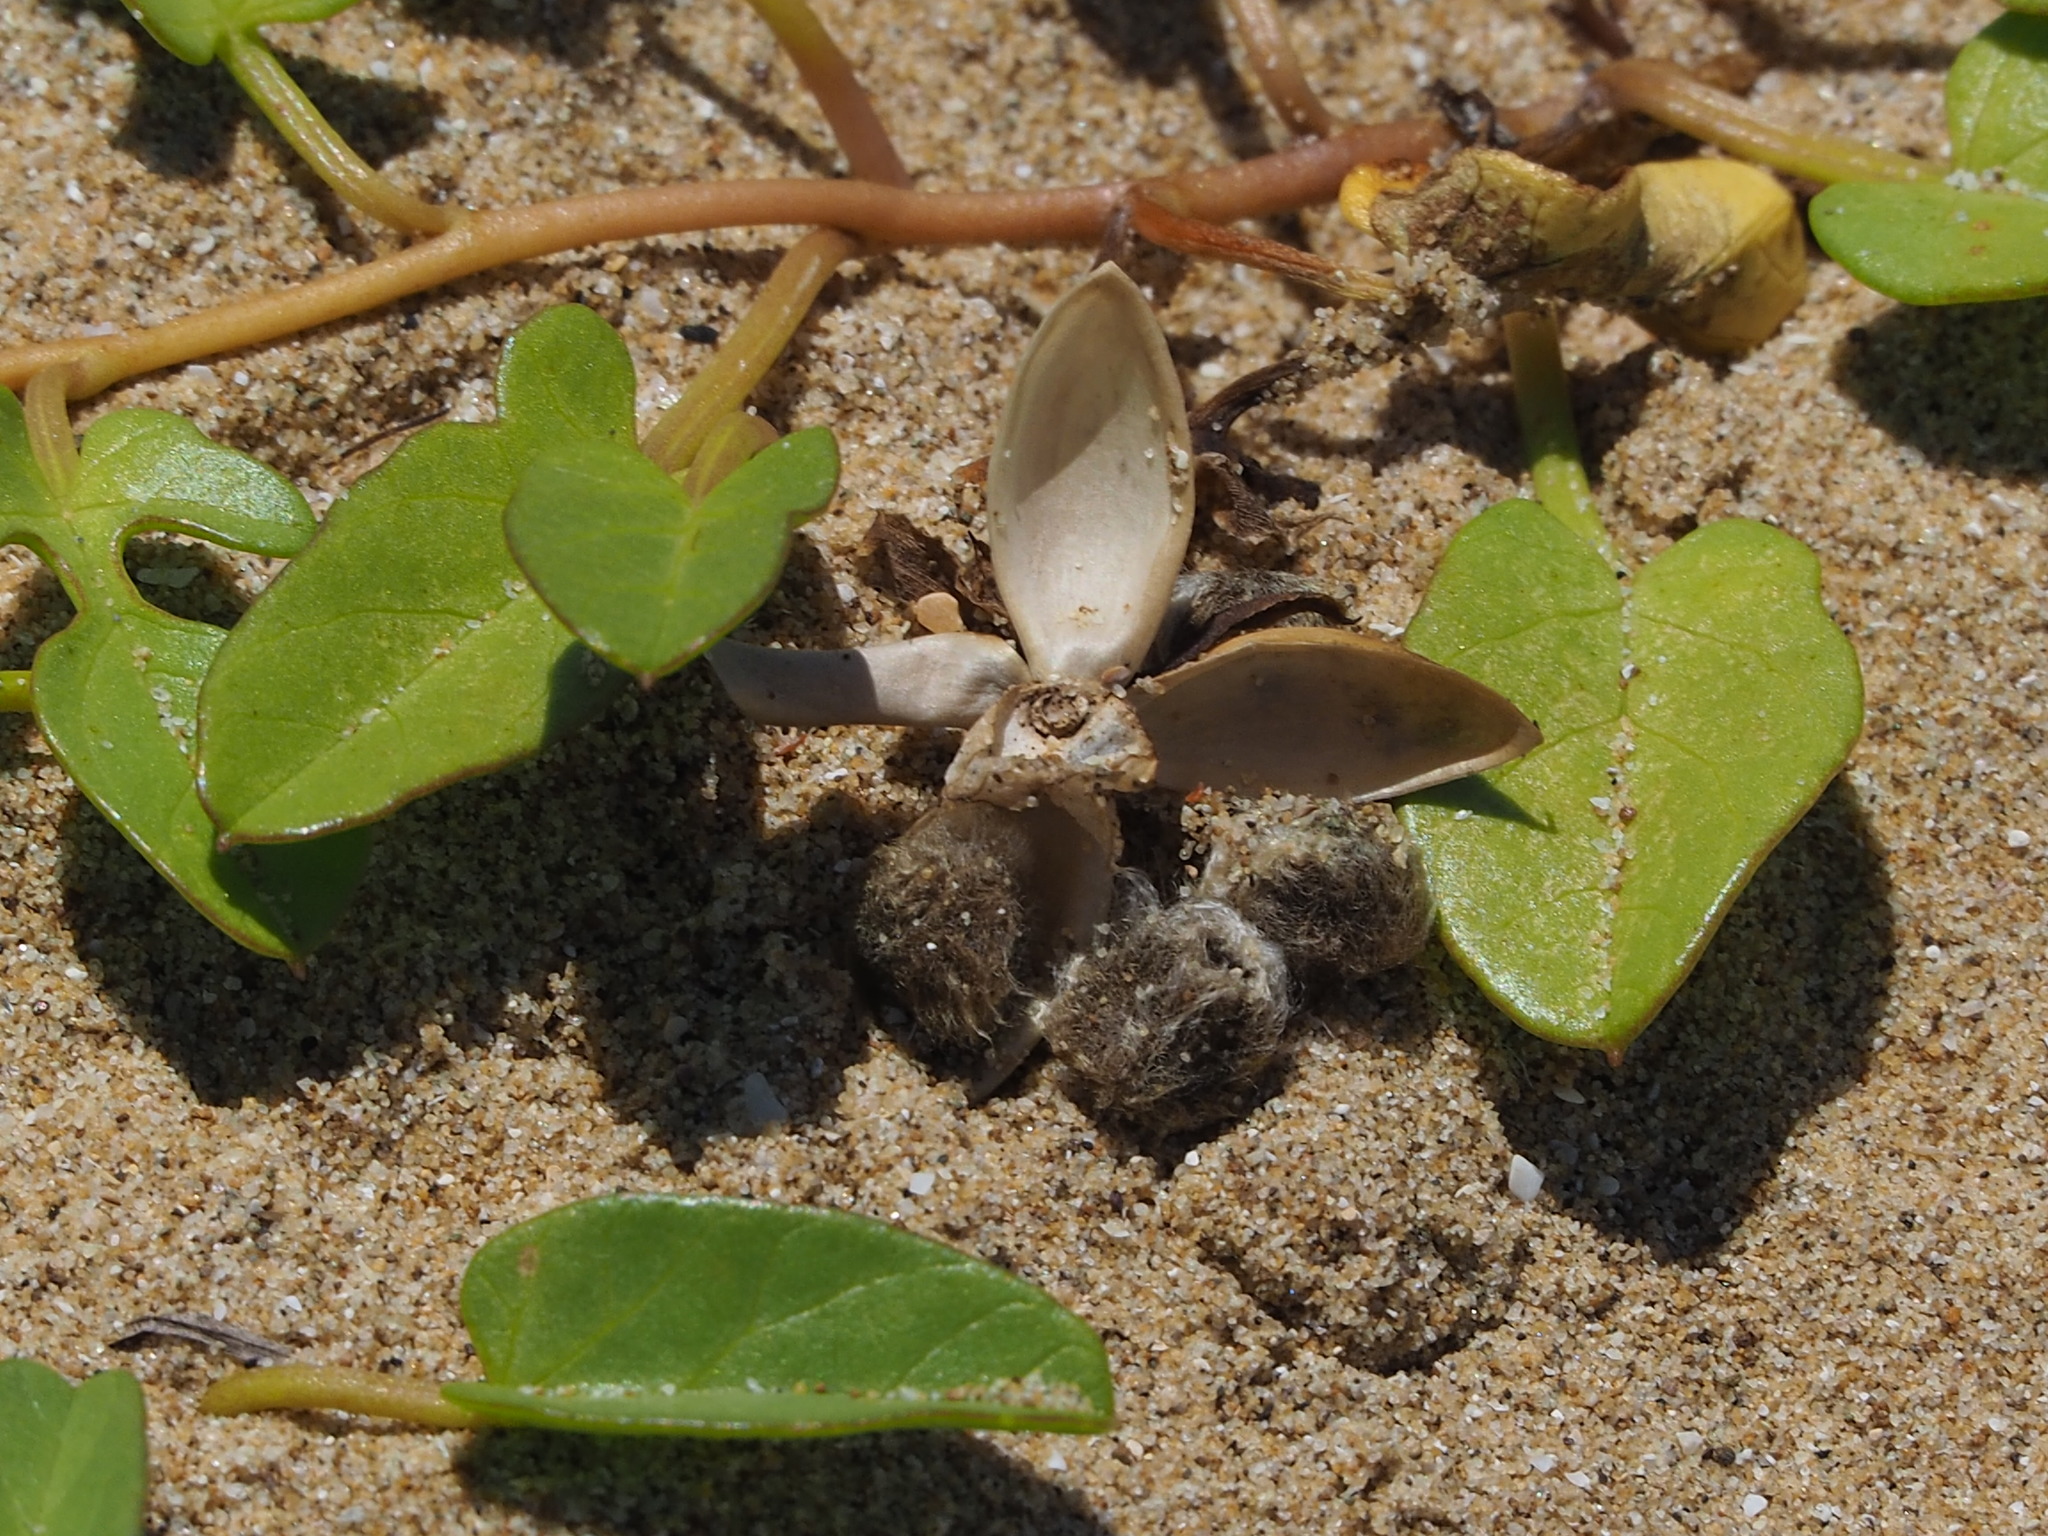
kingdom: Plantae
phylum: Tracheophyta
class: Magnoliopsida
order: Solanales
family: Convolvulaceae
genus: Ipomoea
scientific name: Ipomoea imperati
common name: Fiddle-leaf morning-glory
